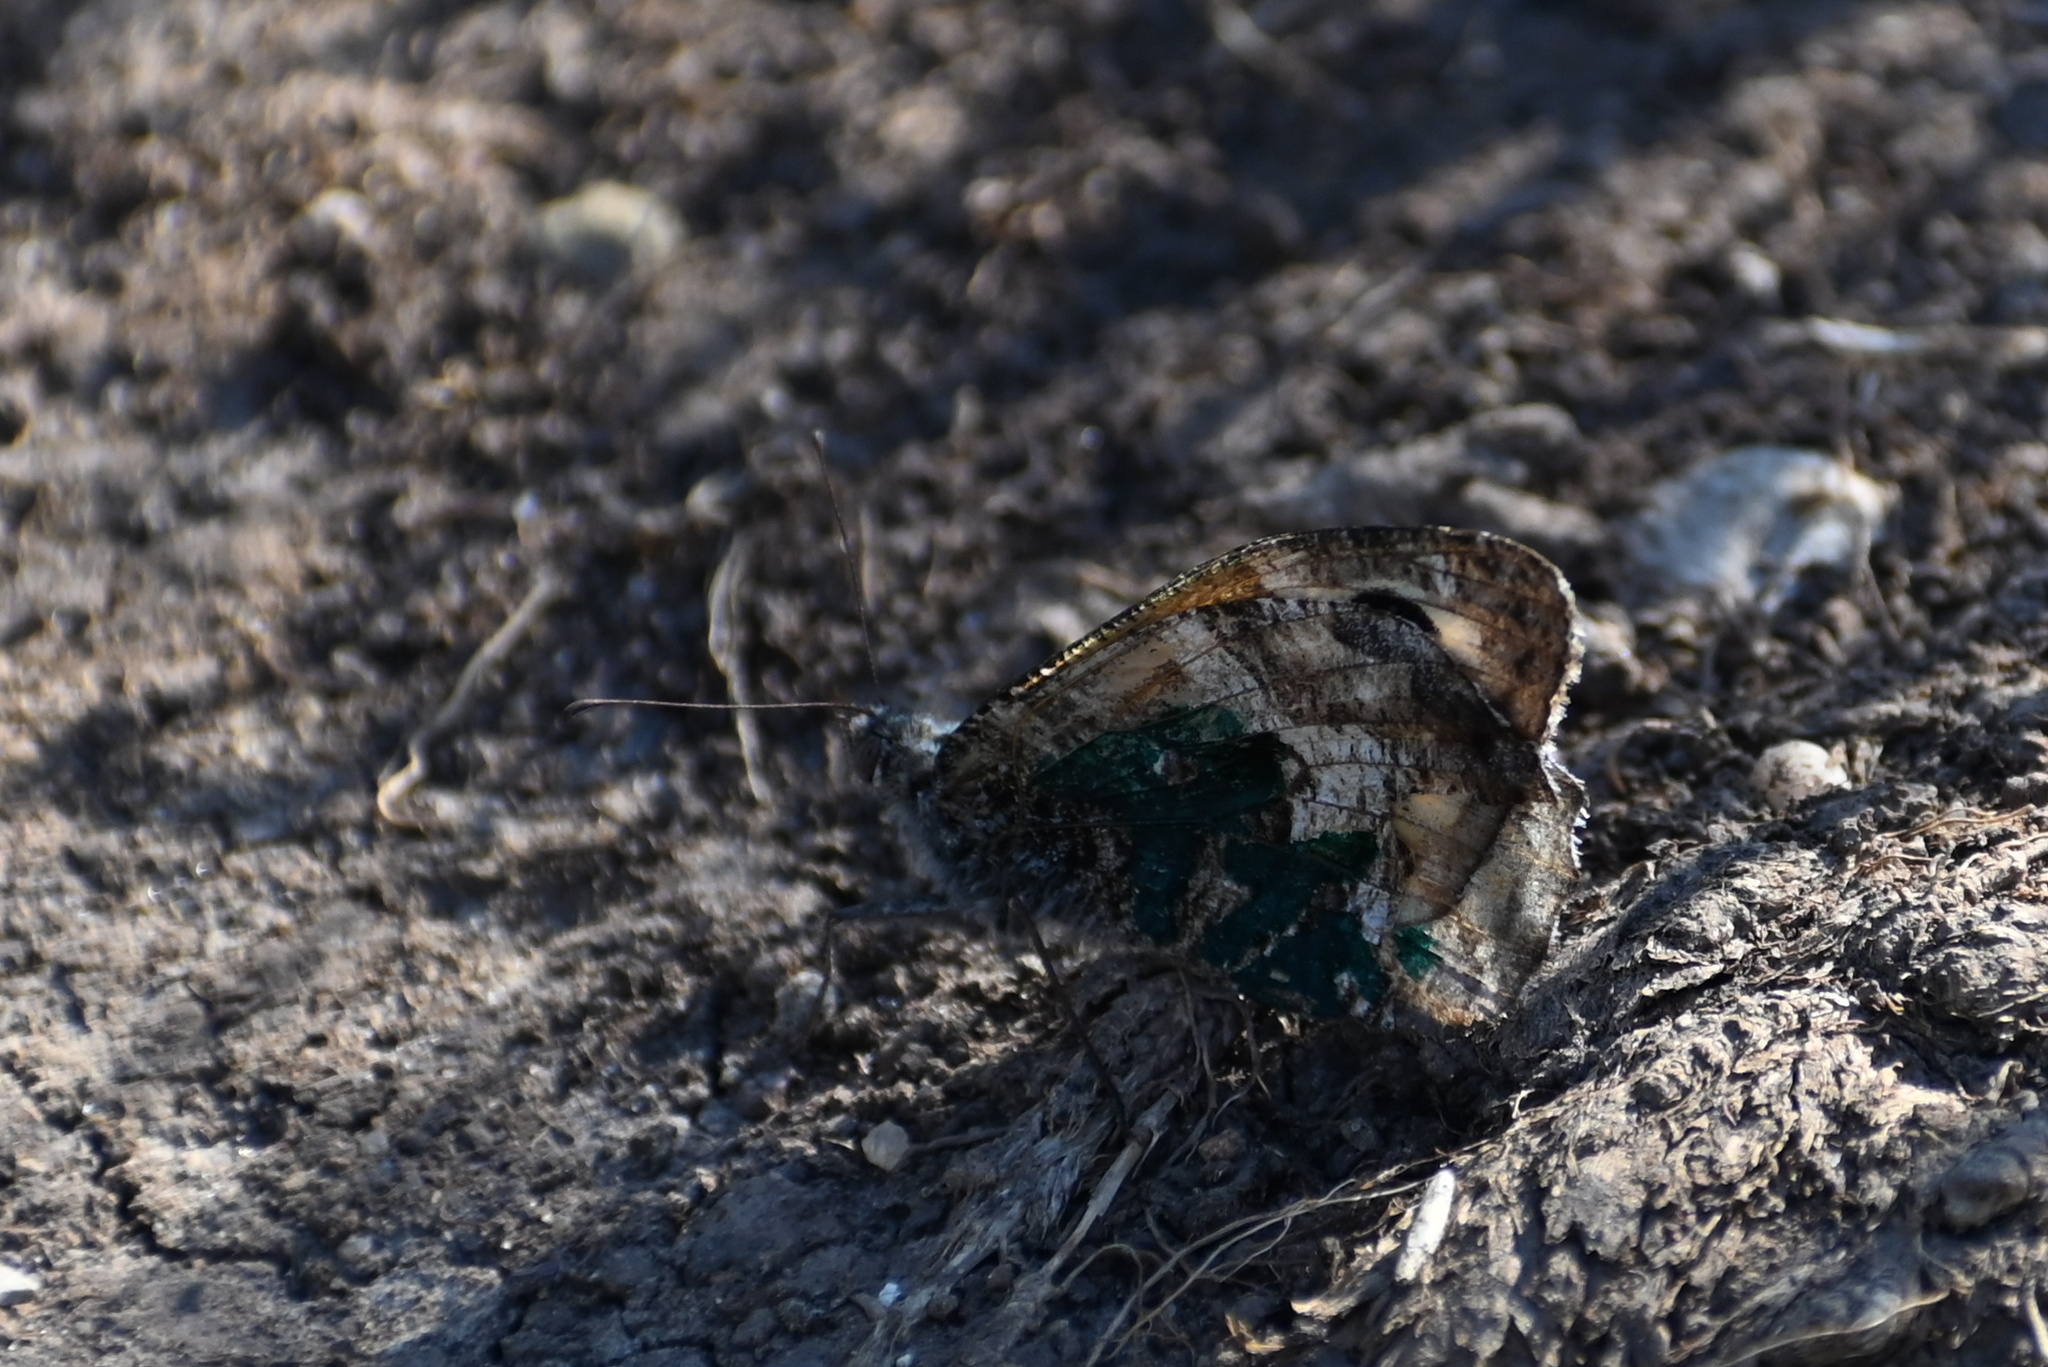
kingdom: Animalia
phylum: Arthropoda
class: Insecta
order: Lepidoptera
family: Nymphalidae
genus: Hipparchia
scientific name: Hipparchia semele
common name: Grayling
